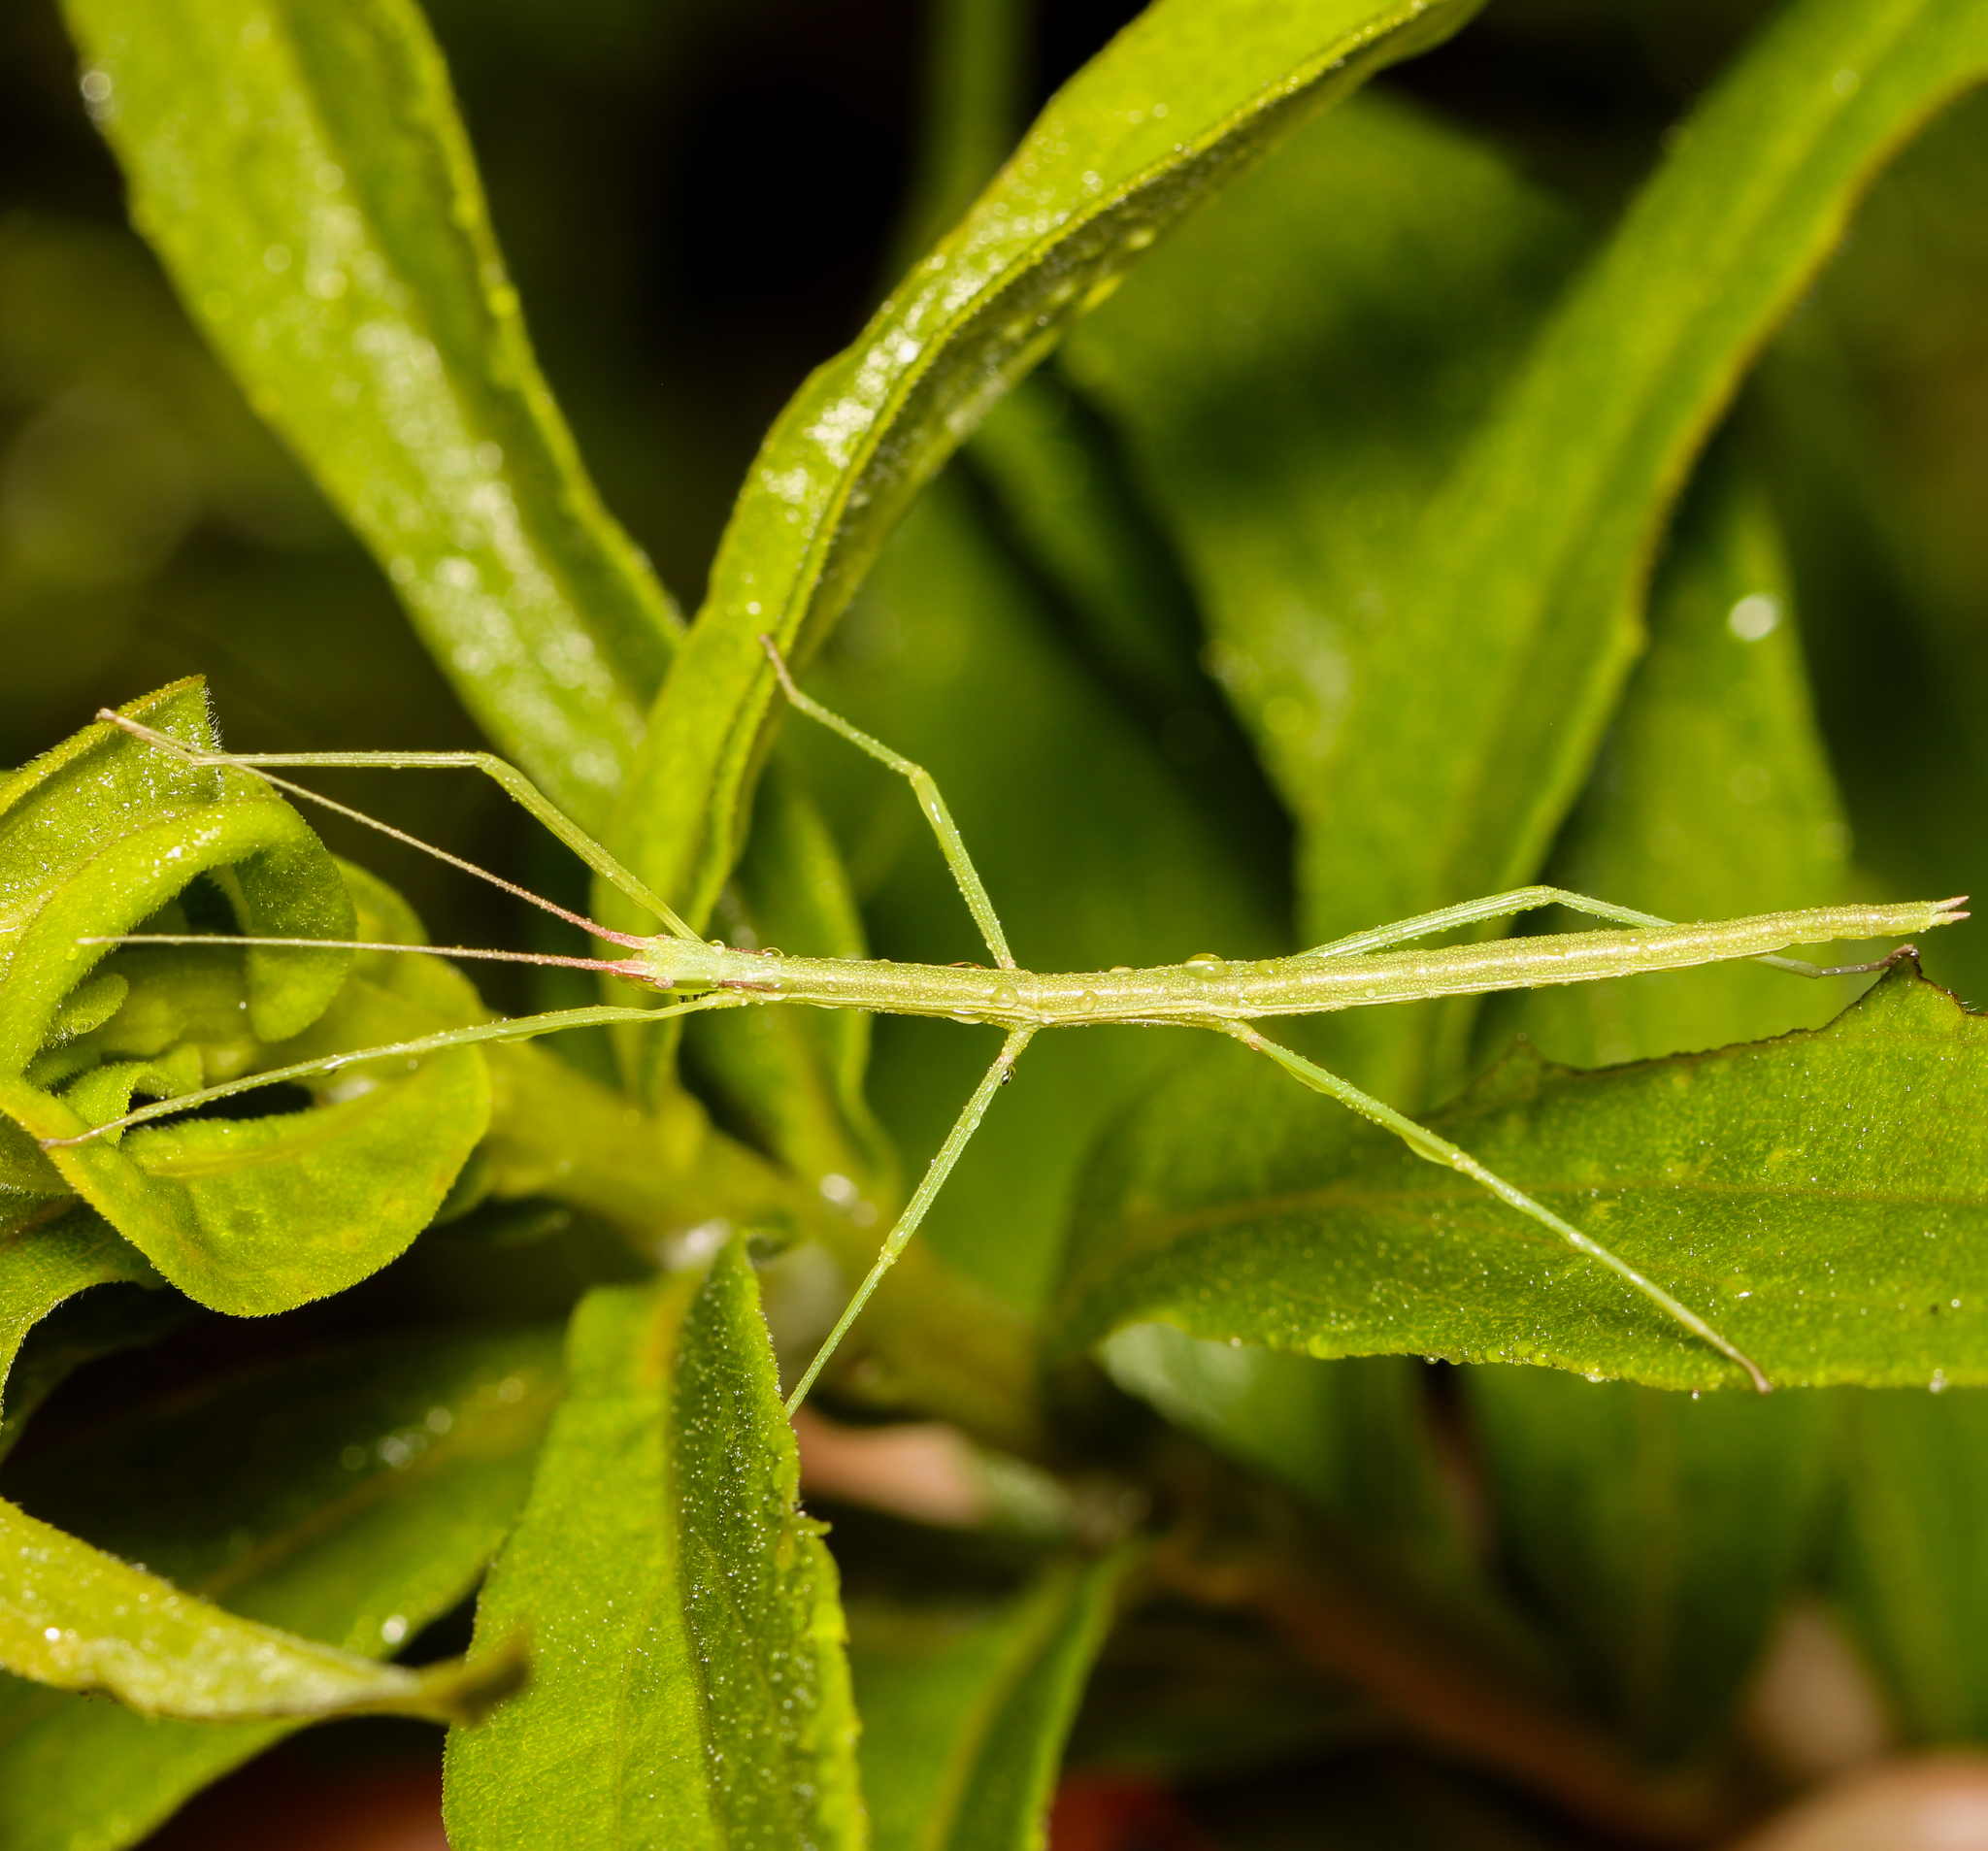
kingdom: Animalia
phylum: Arthropoda
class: Insecta
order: Phasmida
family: Diapheromeridae
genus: Manomera
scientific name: Manomera blatchleyi
